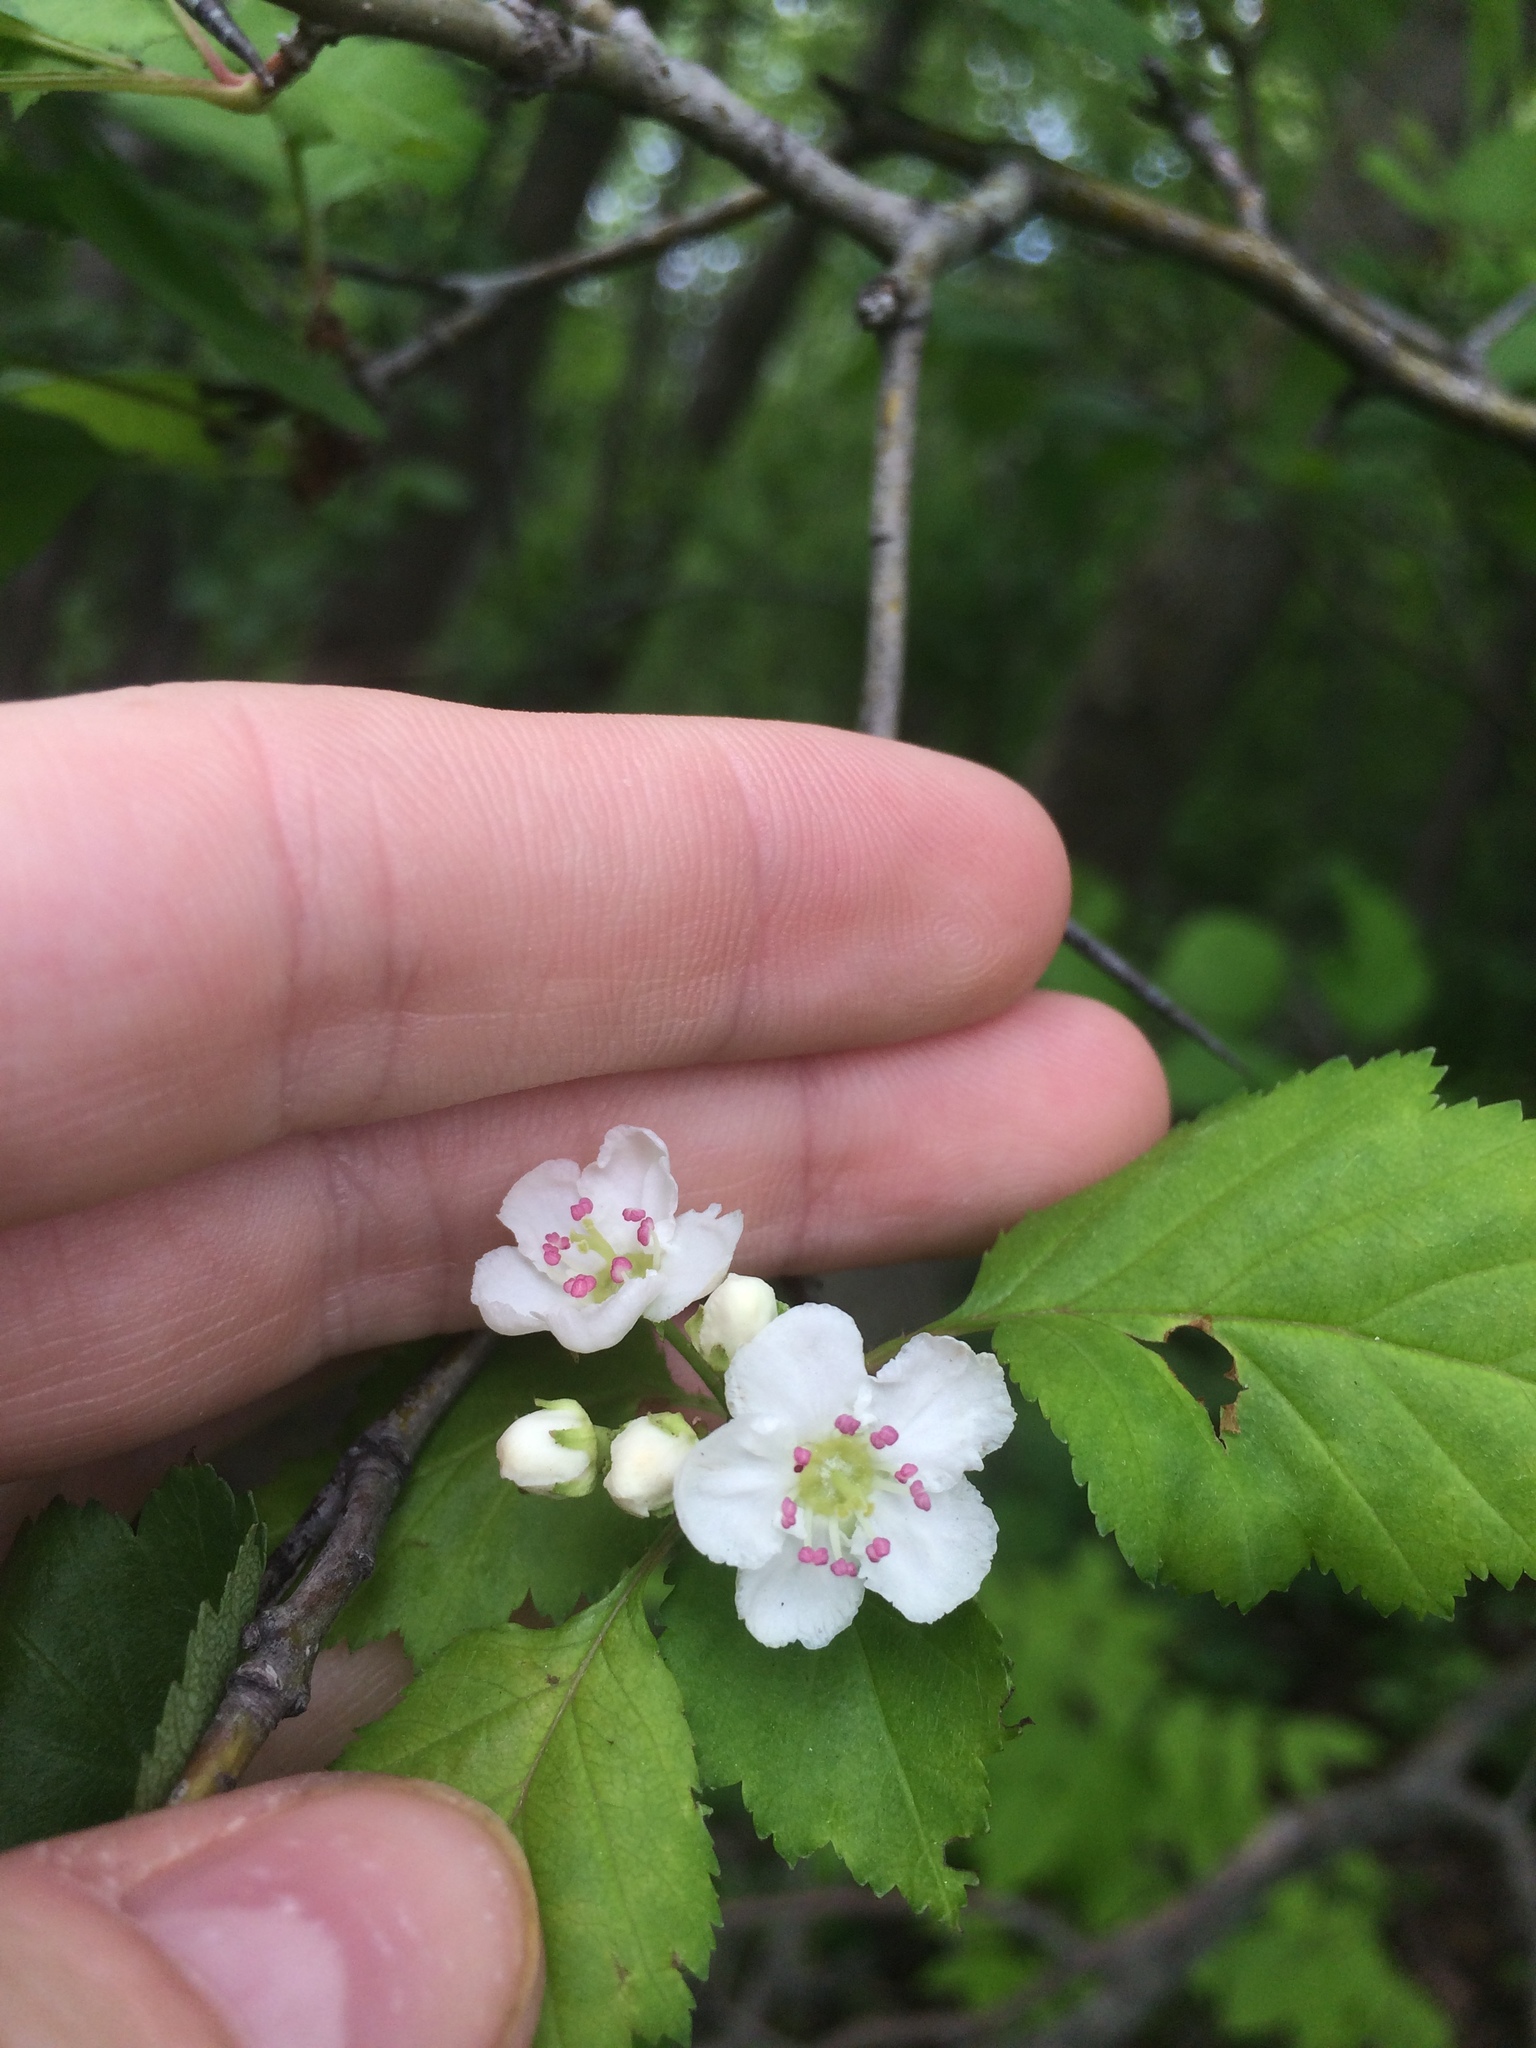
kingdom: Plantae
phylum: Tracheophyta
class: Magnoliopsida
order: Rosales
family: Rosaceae
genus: Crataegus
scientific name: Crataegus macrosperma
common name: Variable hawthorn
